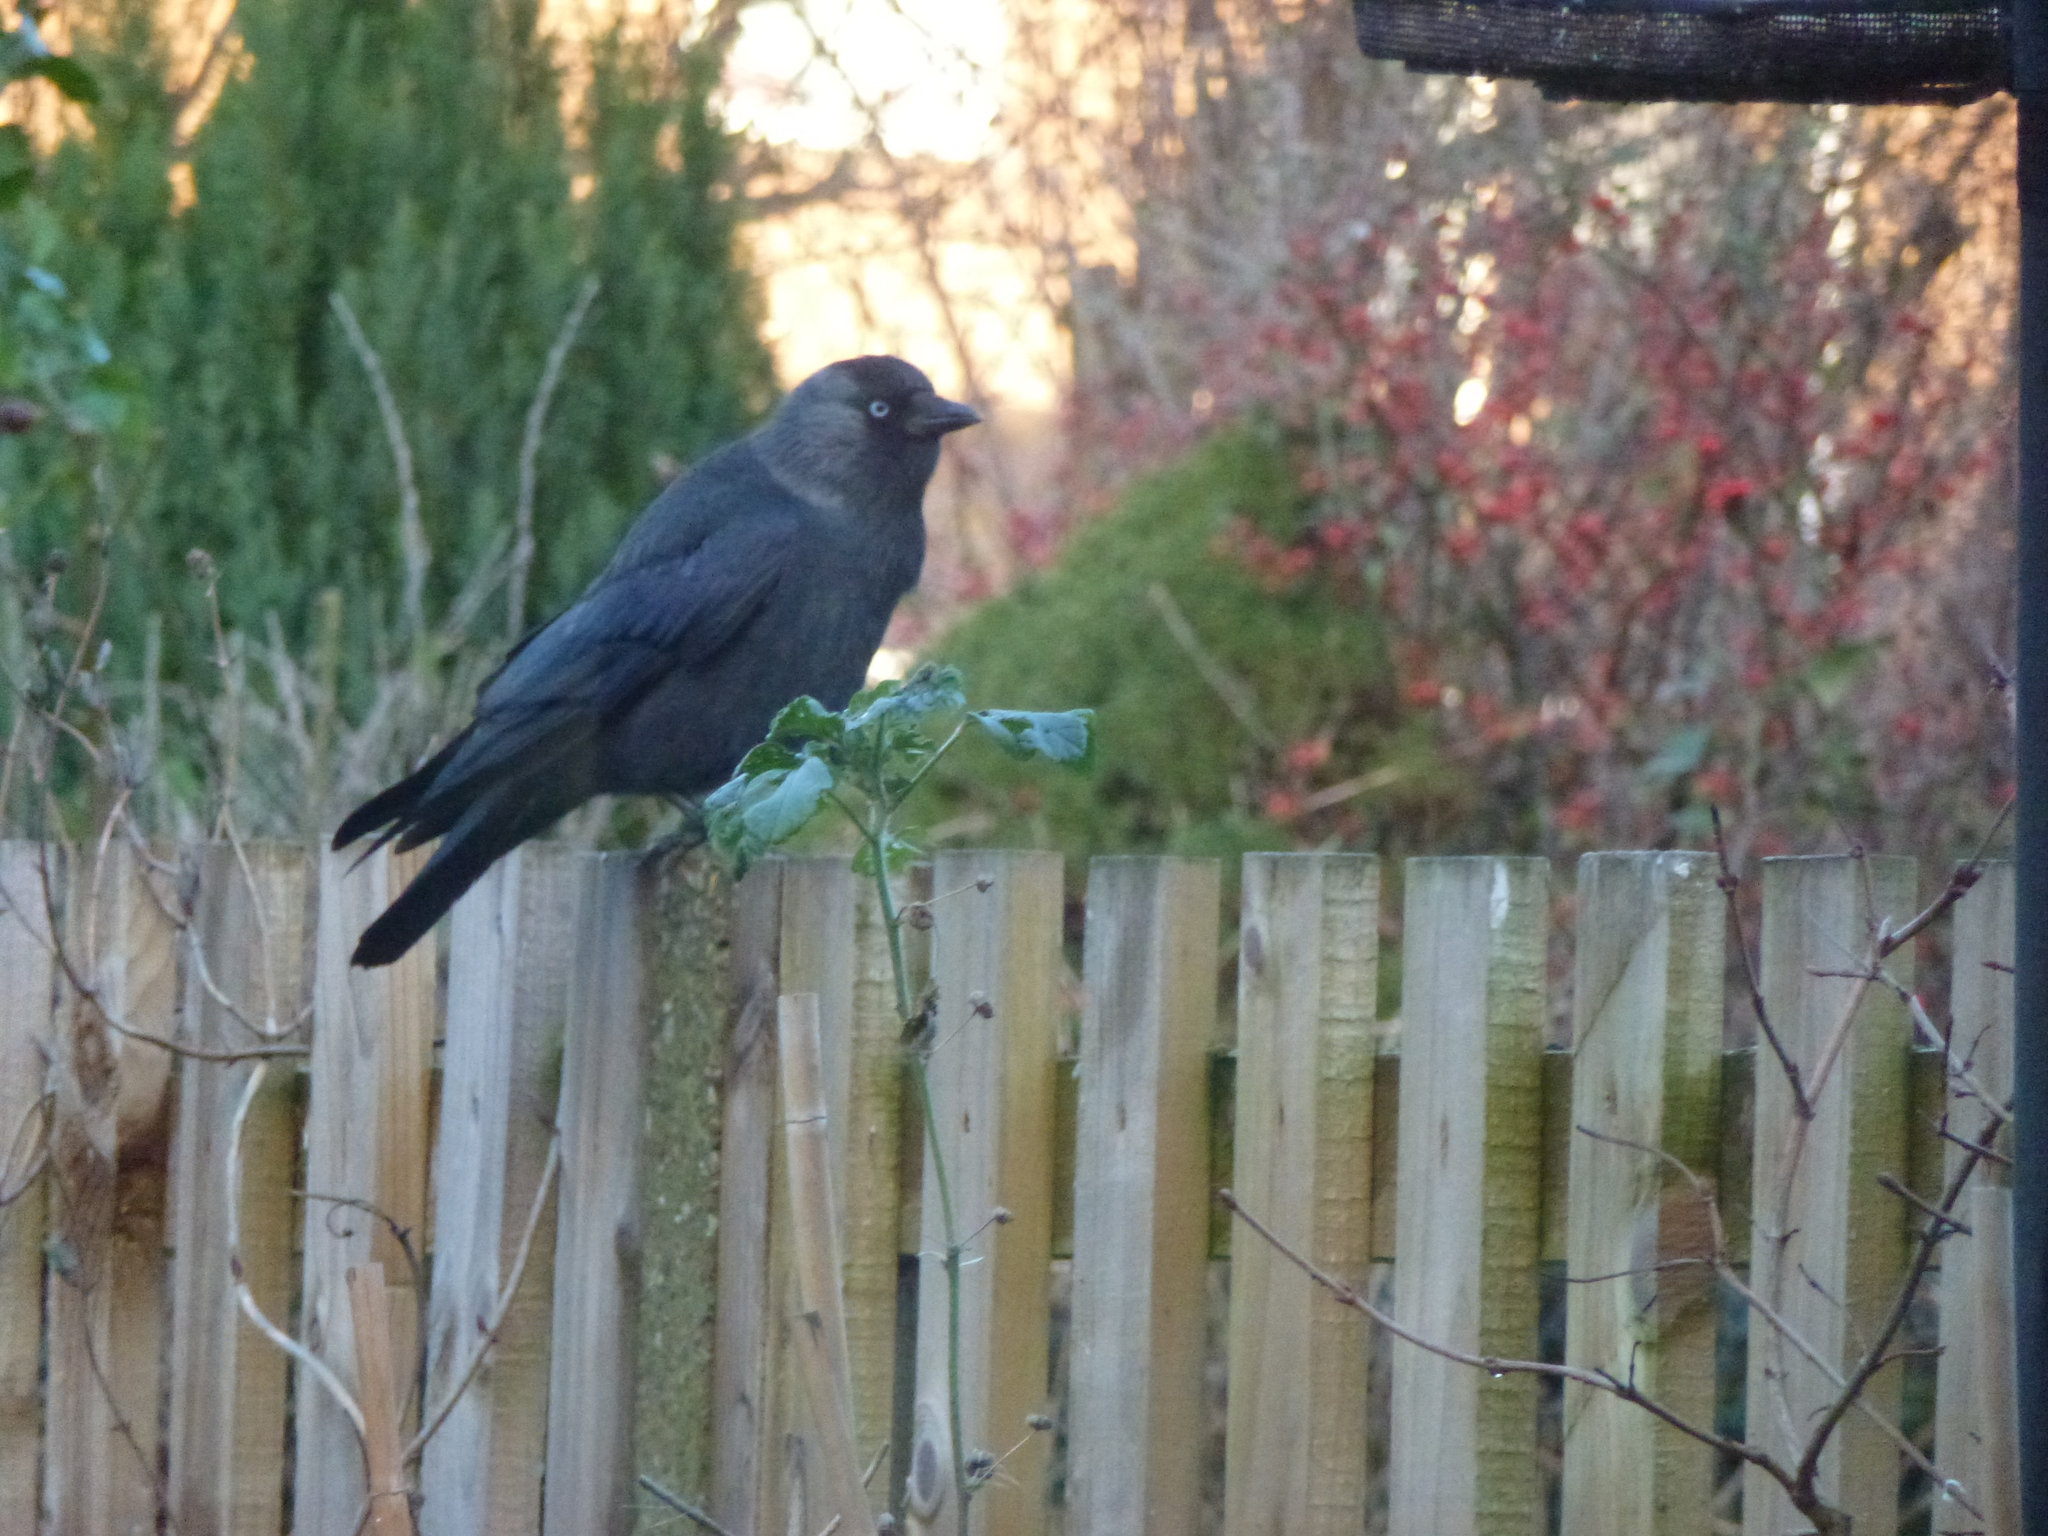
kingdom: Animalia
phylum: Chordata
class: Aves
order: Passeriformes
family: Corvidae
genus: Coloeus
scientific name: Coloeus monedula
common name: Western jackdaw
